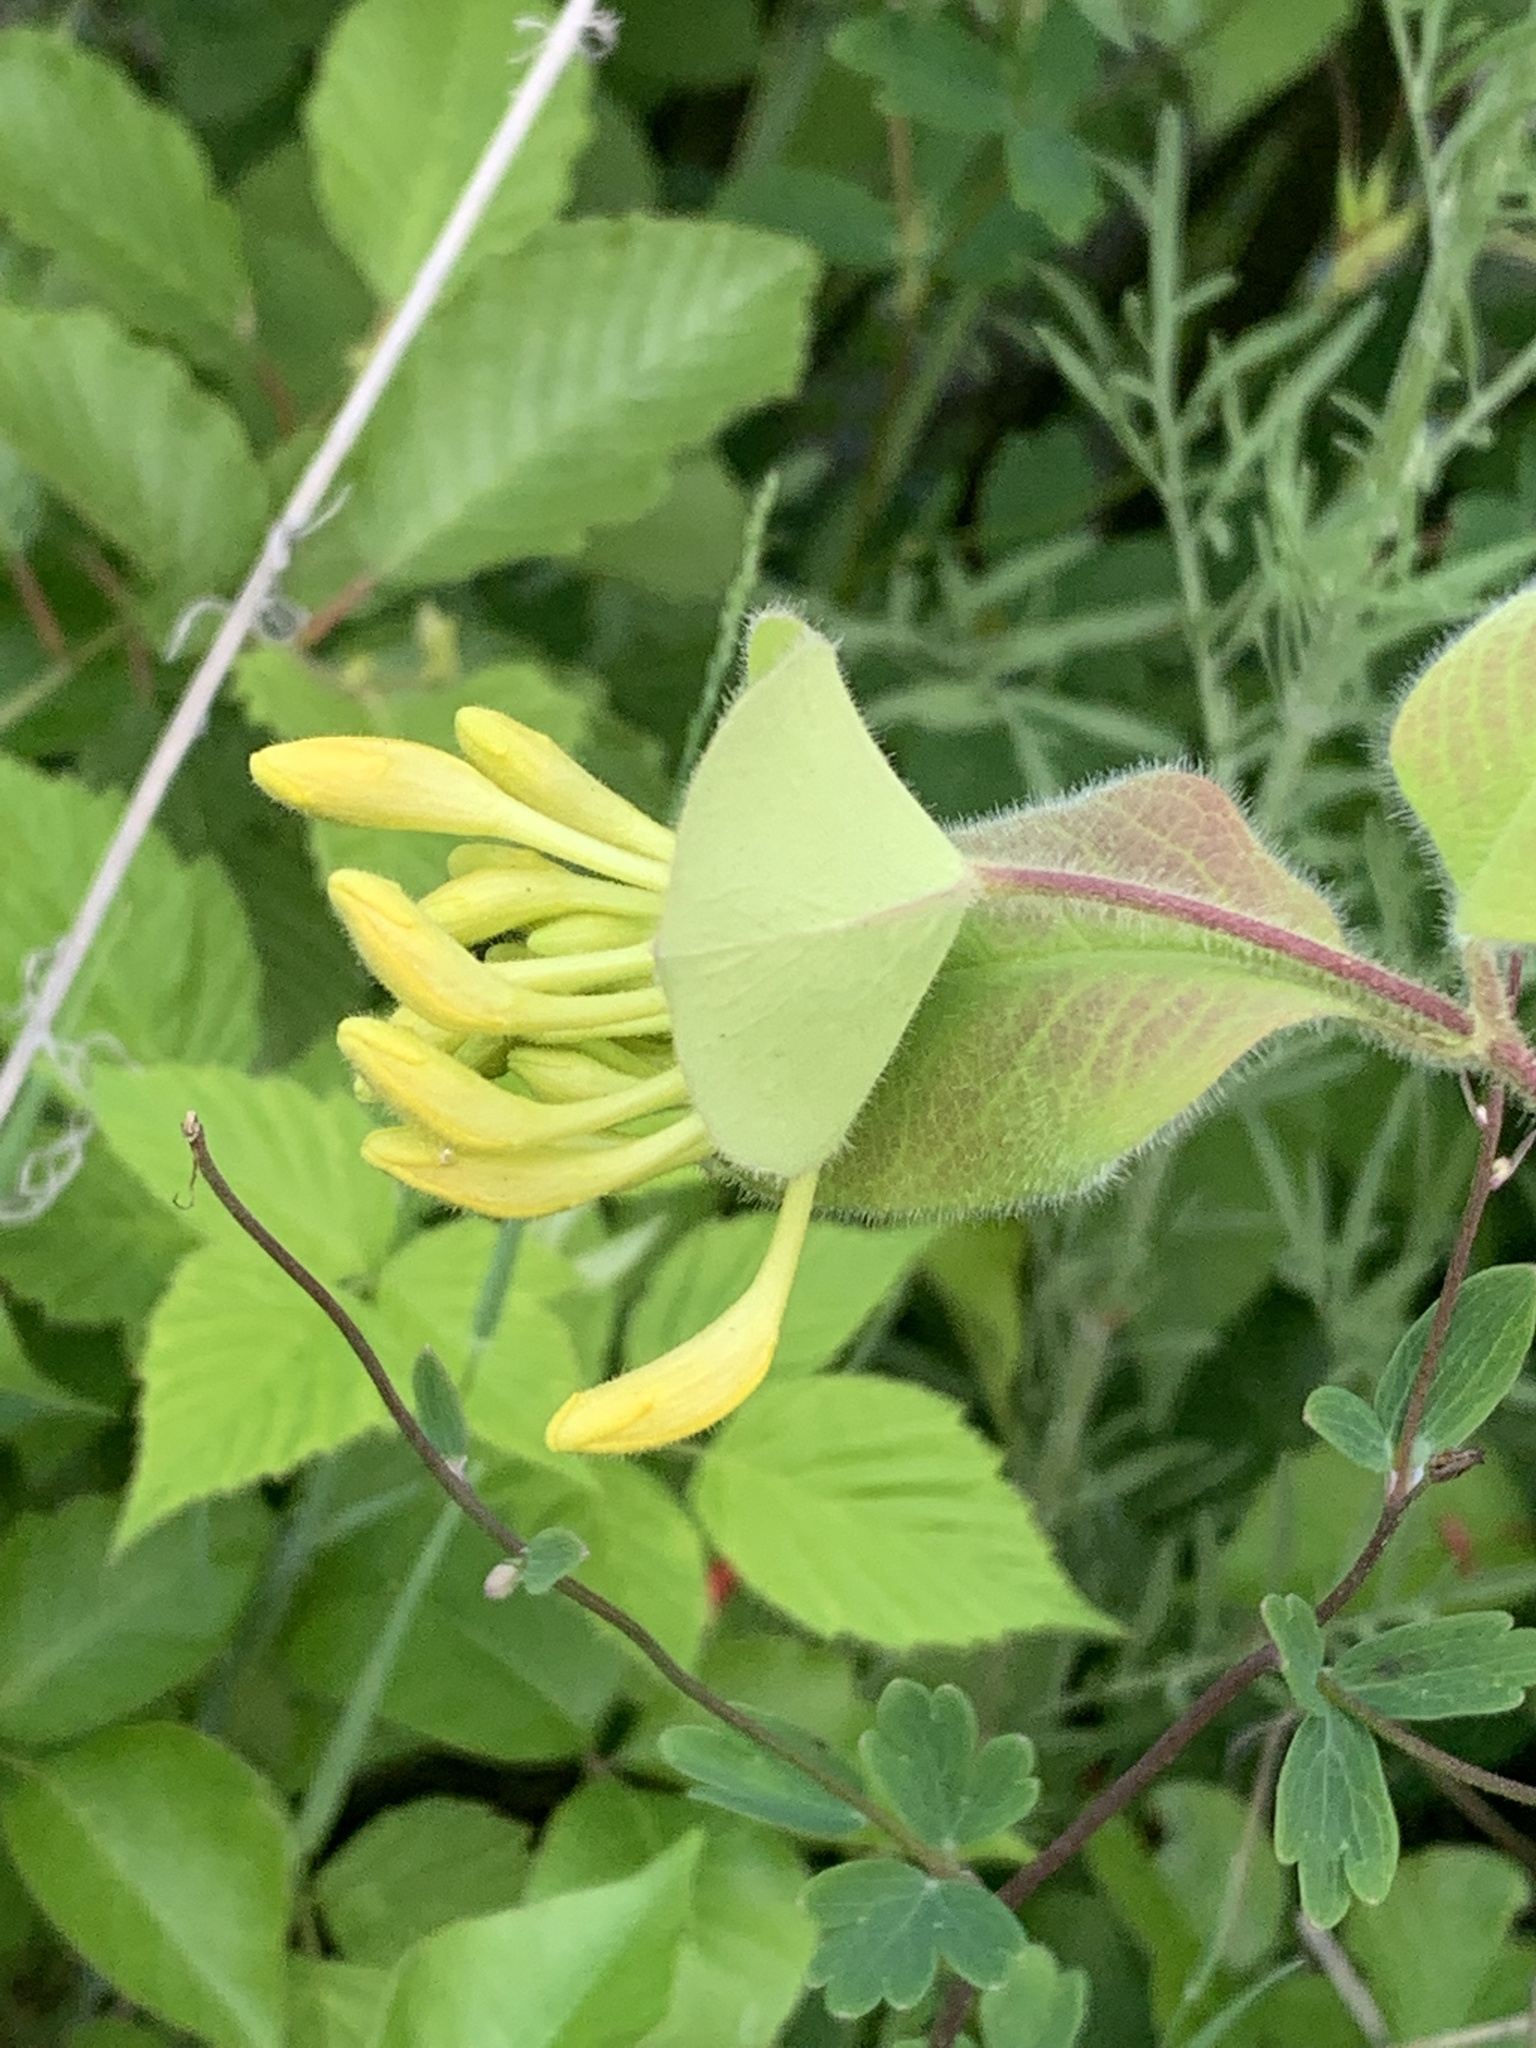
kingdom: Plantae
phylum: Tracheophyta
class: Magnoliopsida
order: Dipsacales
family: Caprifoliaceae
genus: Lonicera
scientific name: Lonicera hirsuta
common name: Hairy honeysuckle
